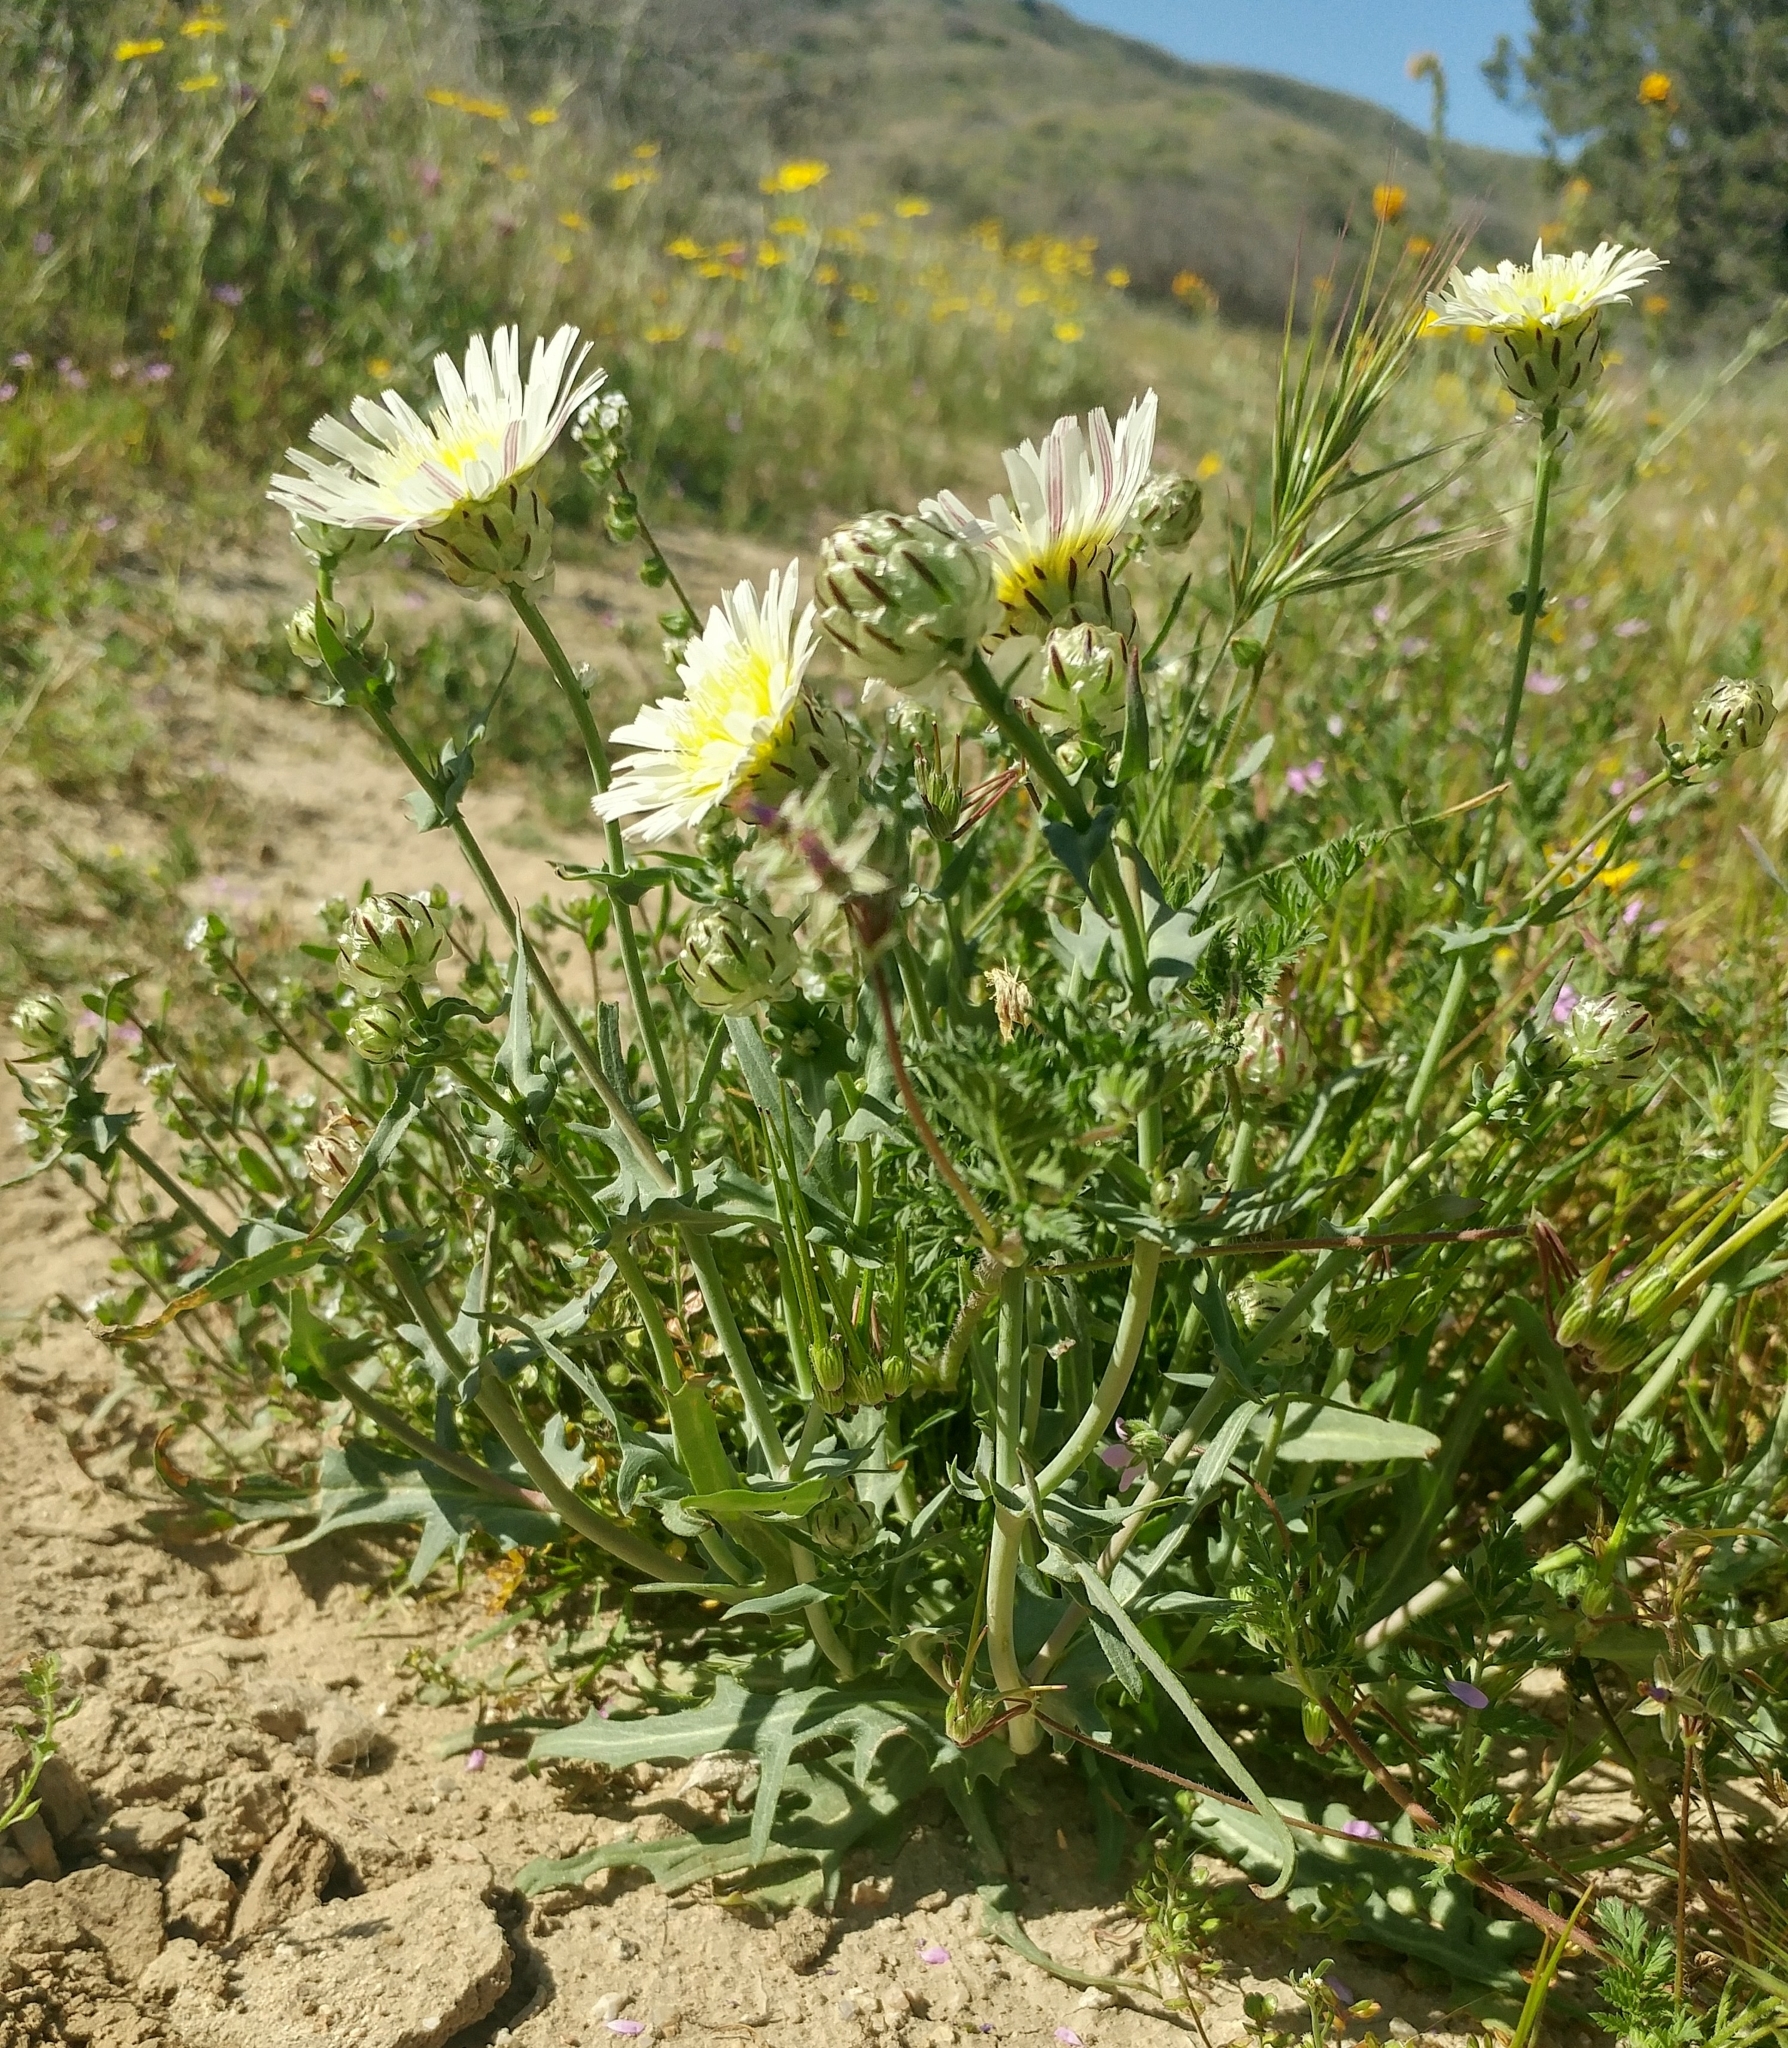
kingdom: Plantae
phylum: Tracheophyta
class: Magnoliopsida
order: Asterales
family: Asteraceae
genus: Malacothrix
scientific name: Malacothrix coulteri
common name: Snake's-head
